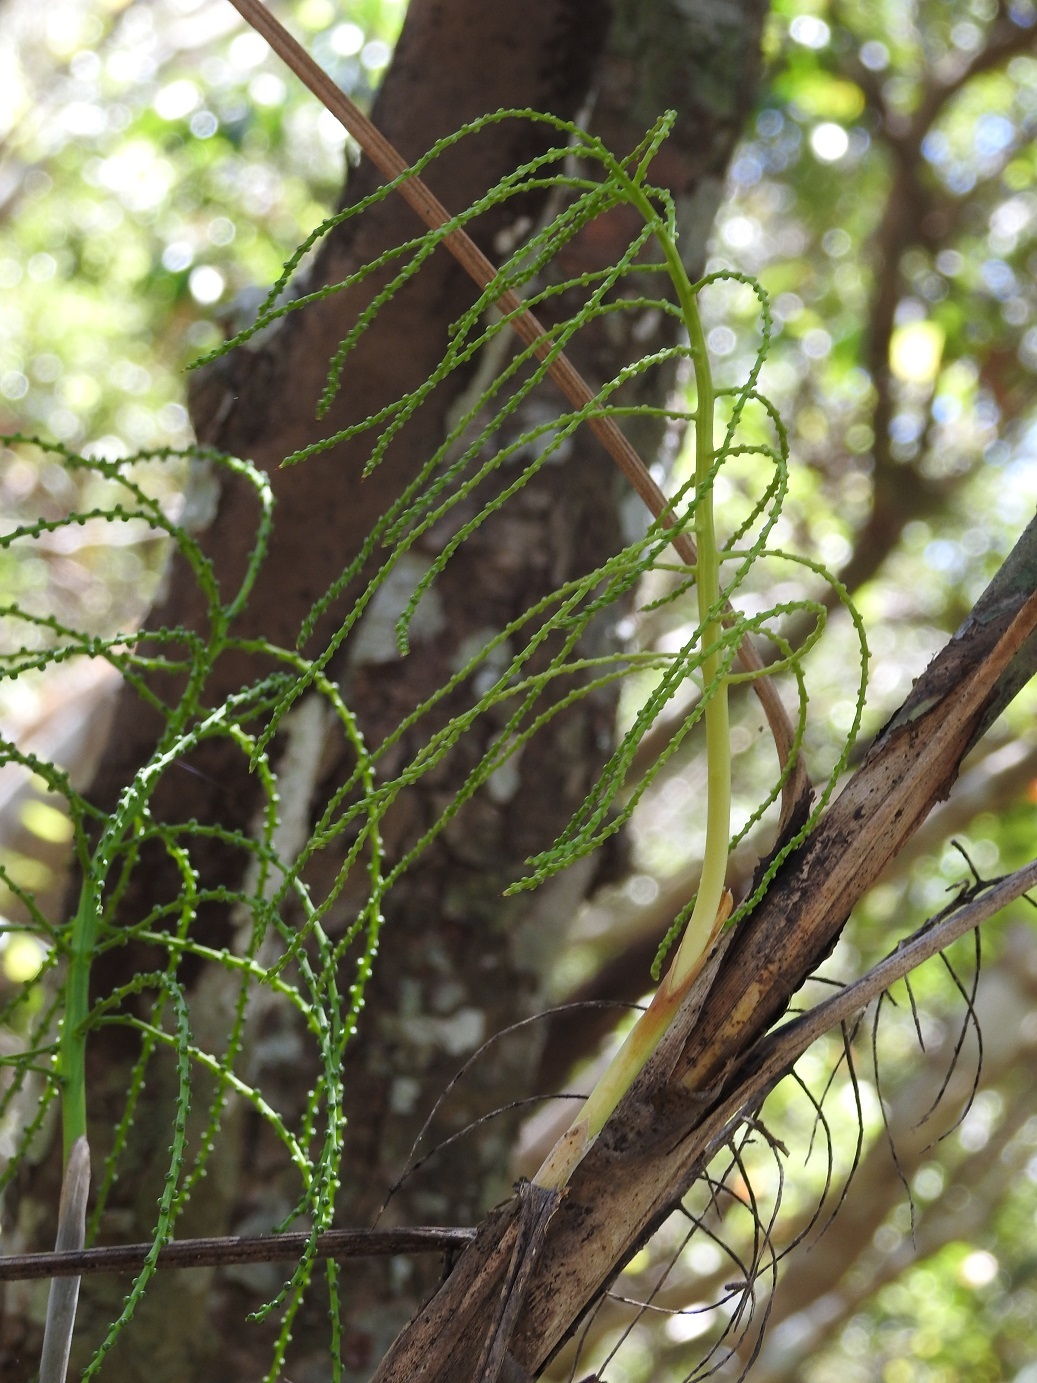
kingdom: Plantae
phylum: Tracheophyta
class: Liliopsida
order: Arecales
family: Arecaceae
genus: Chamaedorea
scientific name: Chamaedorea glaucifolia
